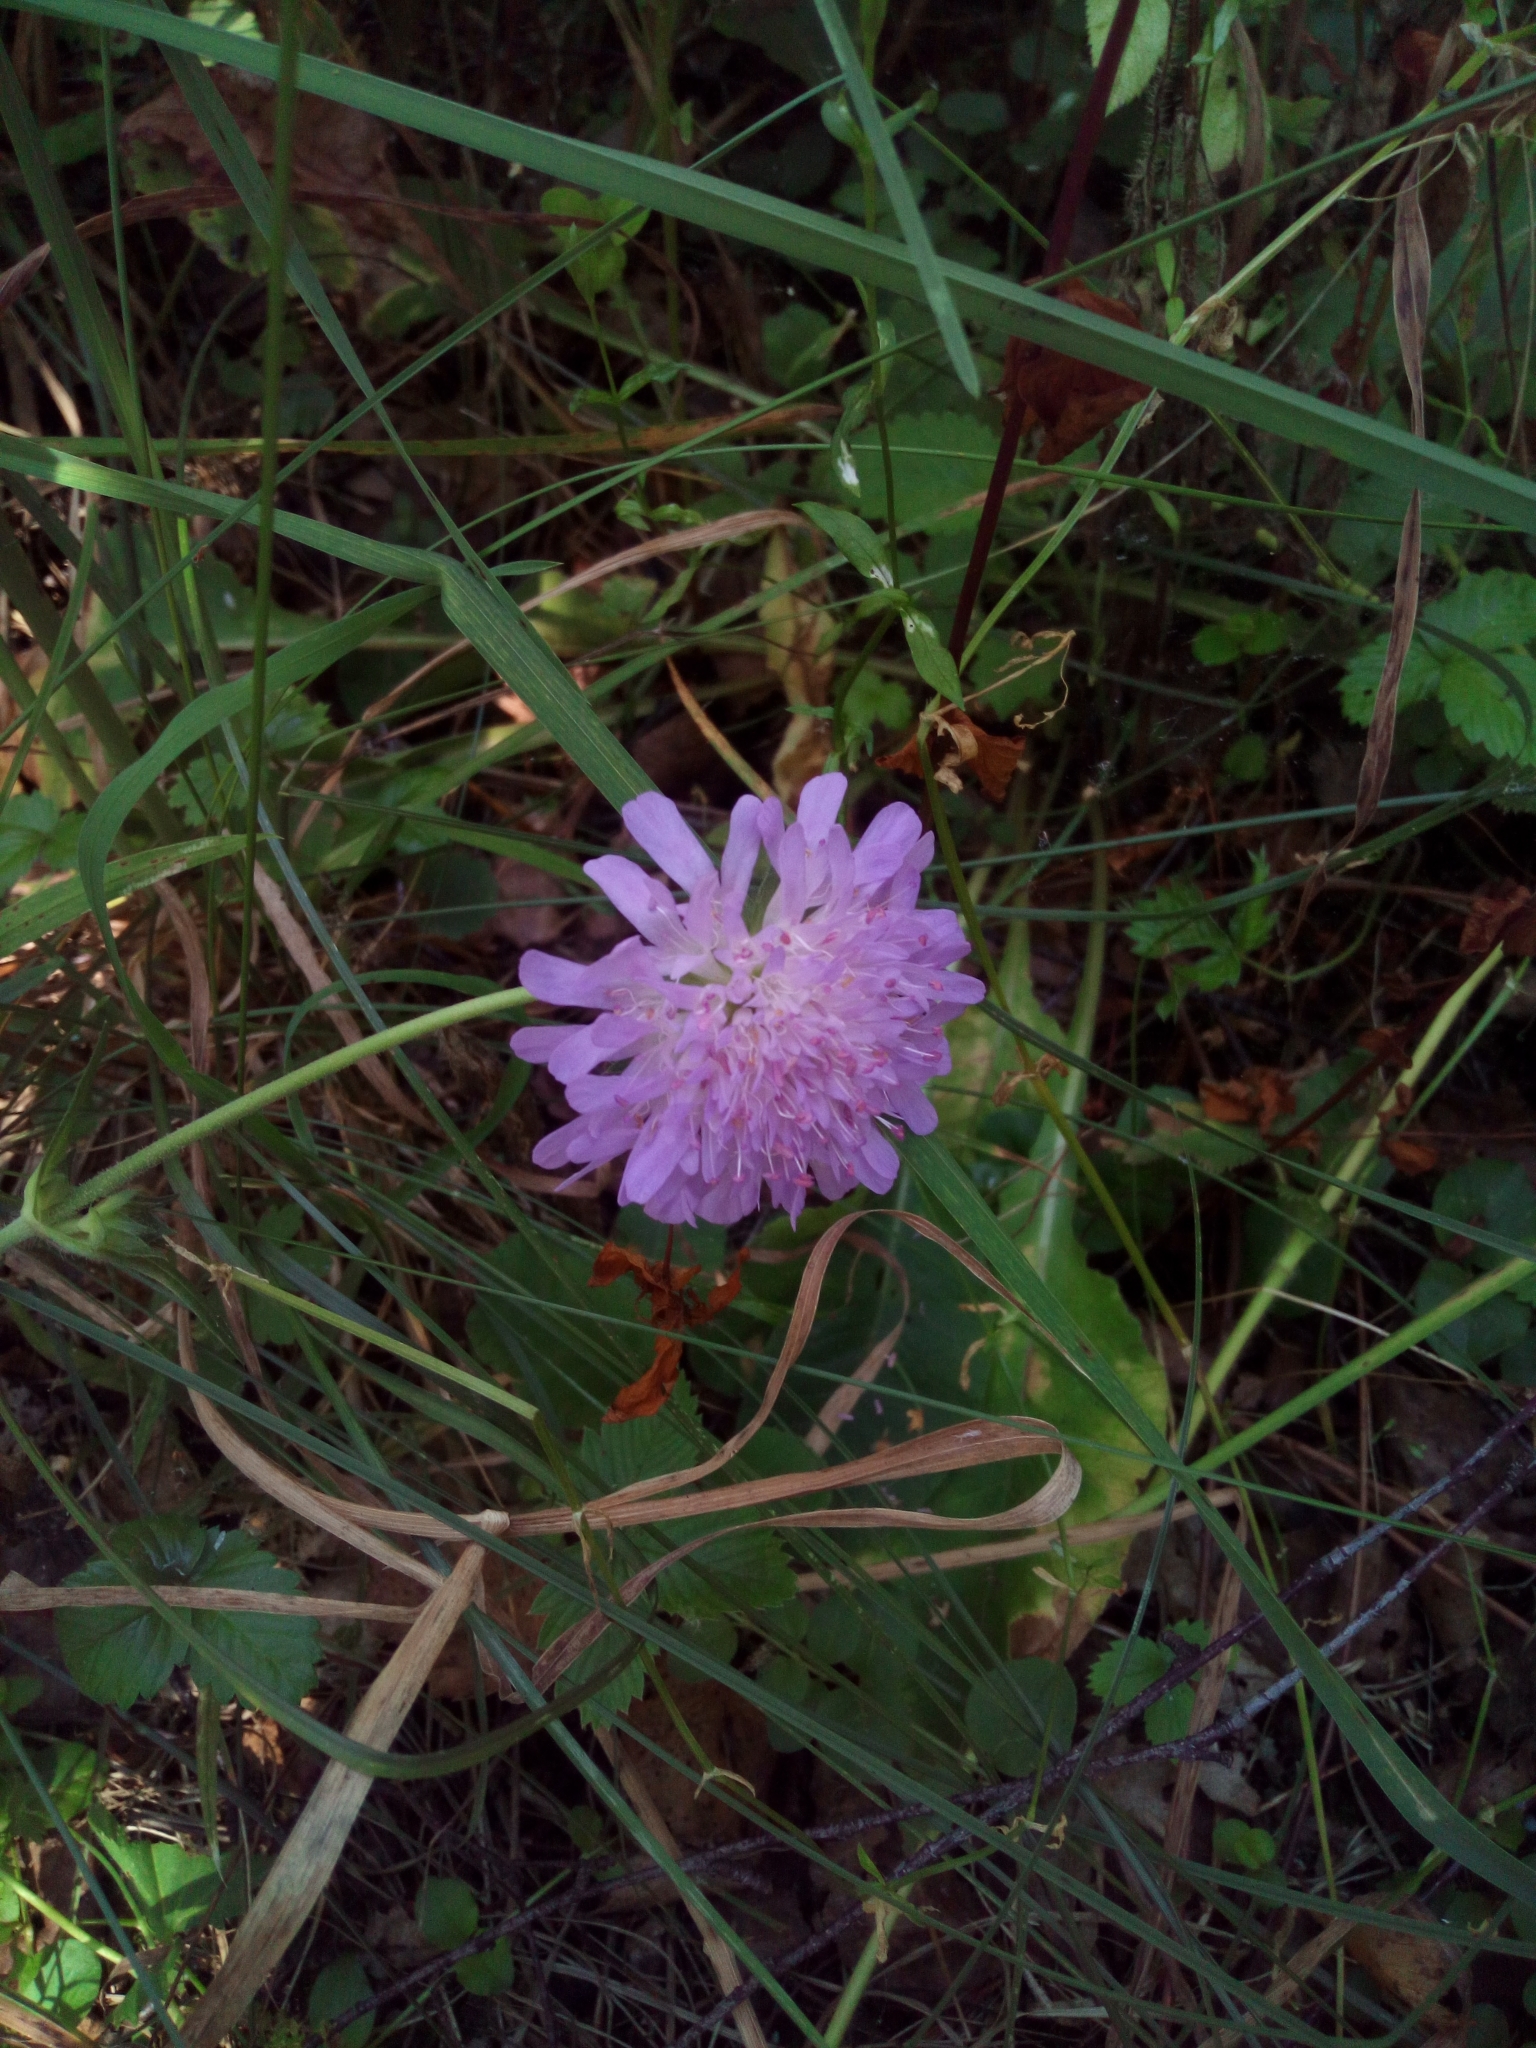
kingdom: Plantae
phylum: Tracheophyta
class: Magnoliopsida
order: Dipsacales
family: Caprifoliaceae
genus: Knautia
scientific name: Knautia arvensis
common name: Field scabiosa
